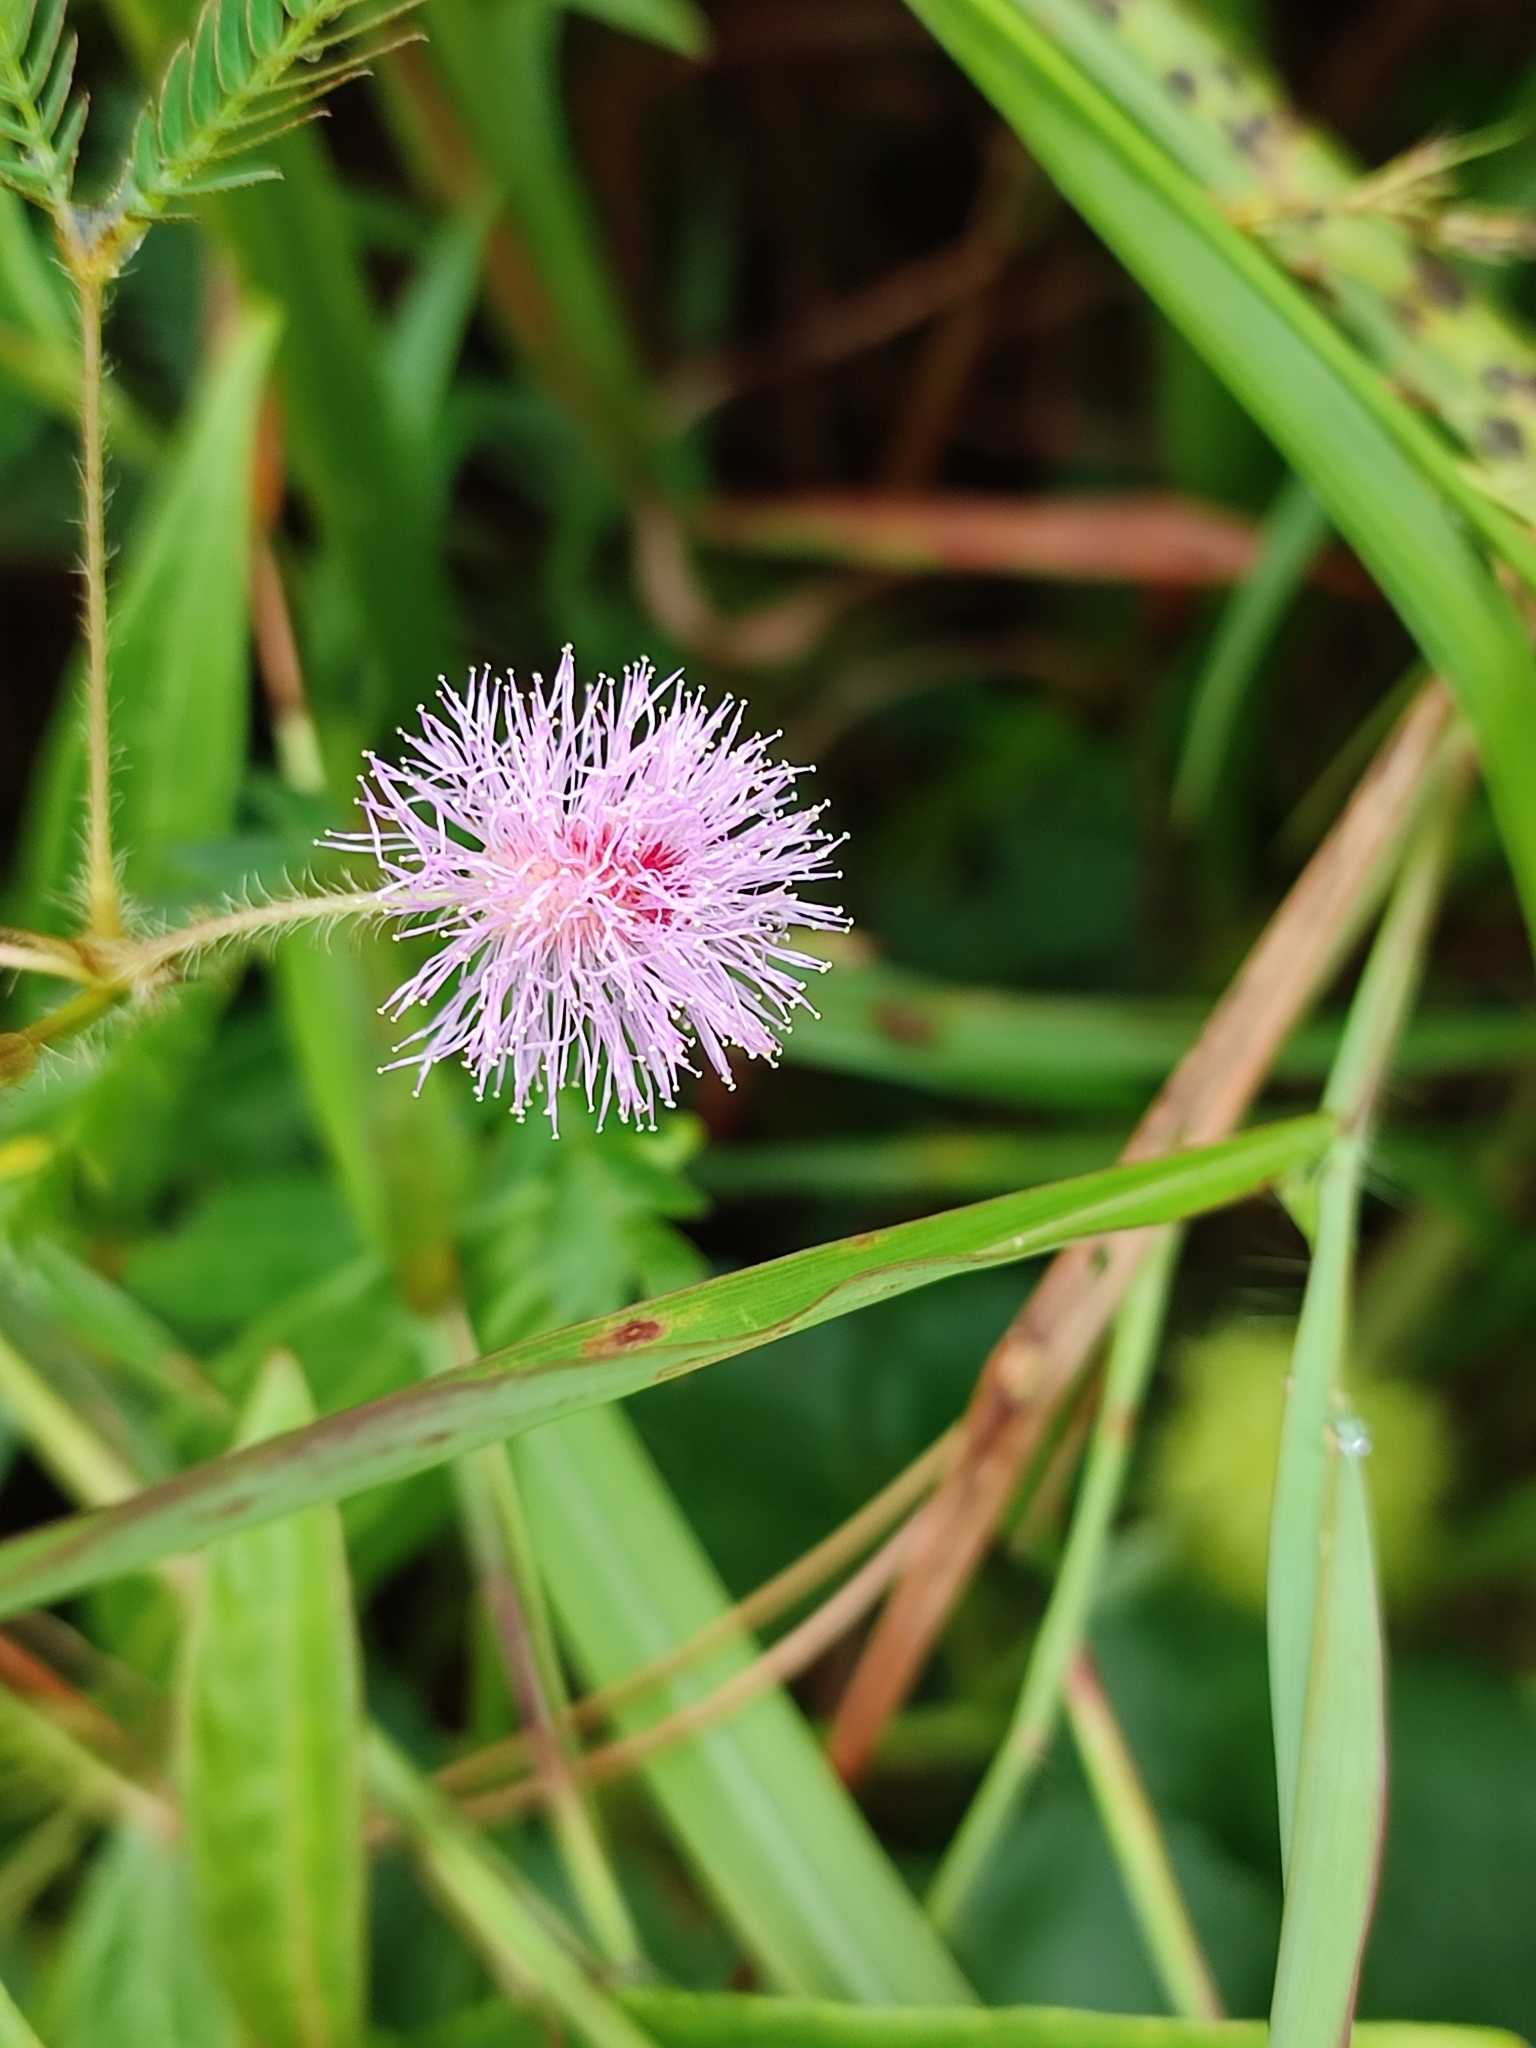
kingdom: Plantae
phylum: Tracheophyta
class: Magnoliopsida
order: Fabales
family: Fabaceae
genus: Mimosa
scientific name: Mimosa pudica
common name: Sensitive plant
